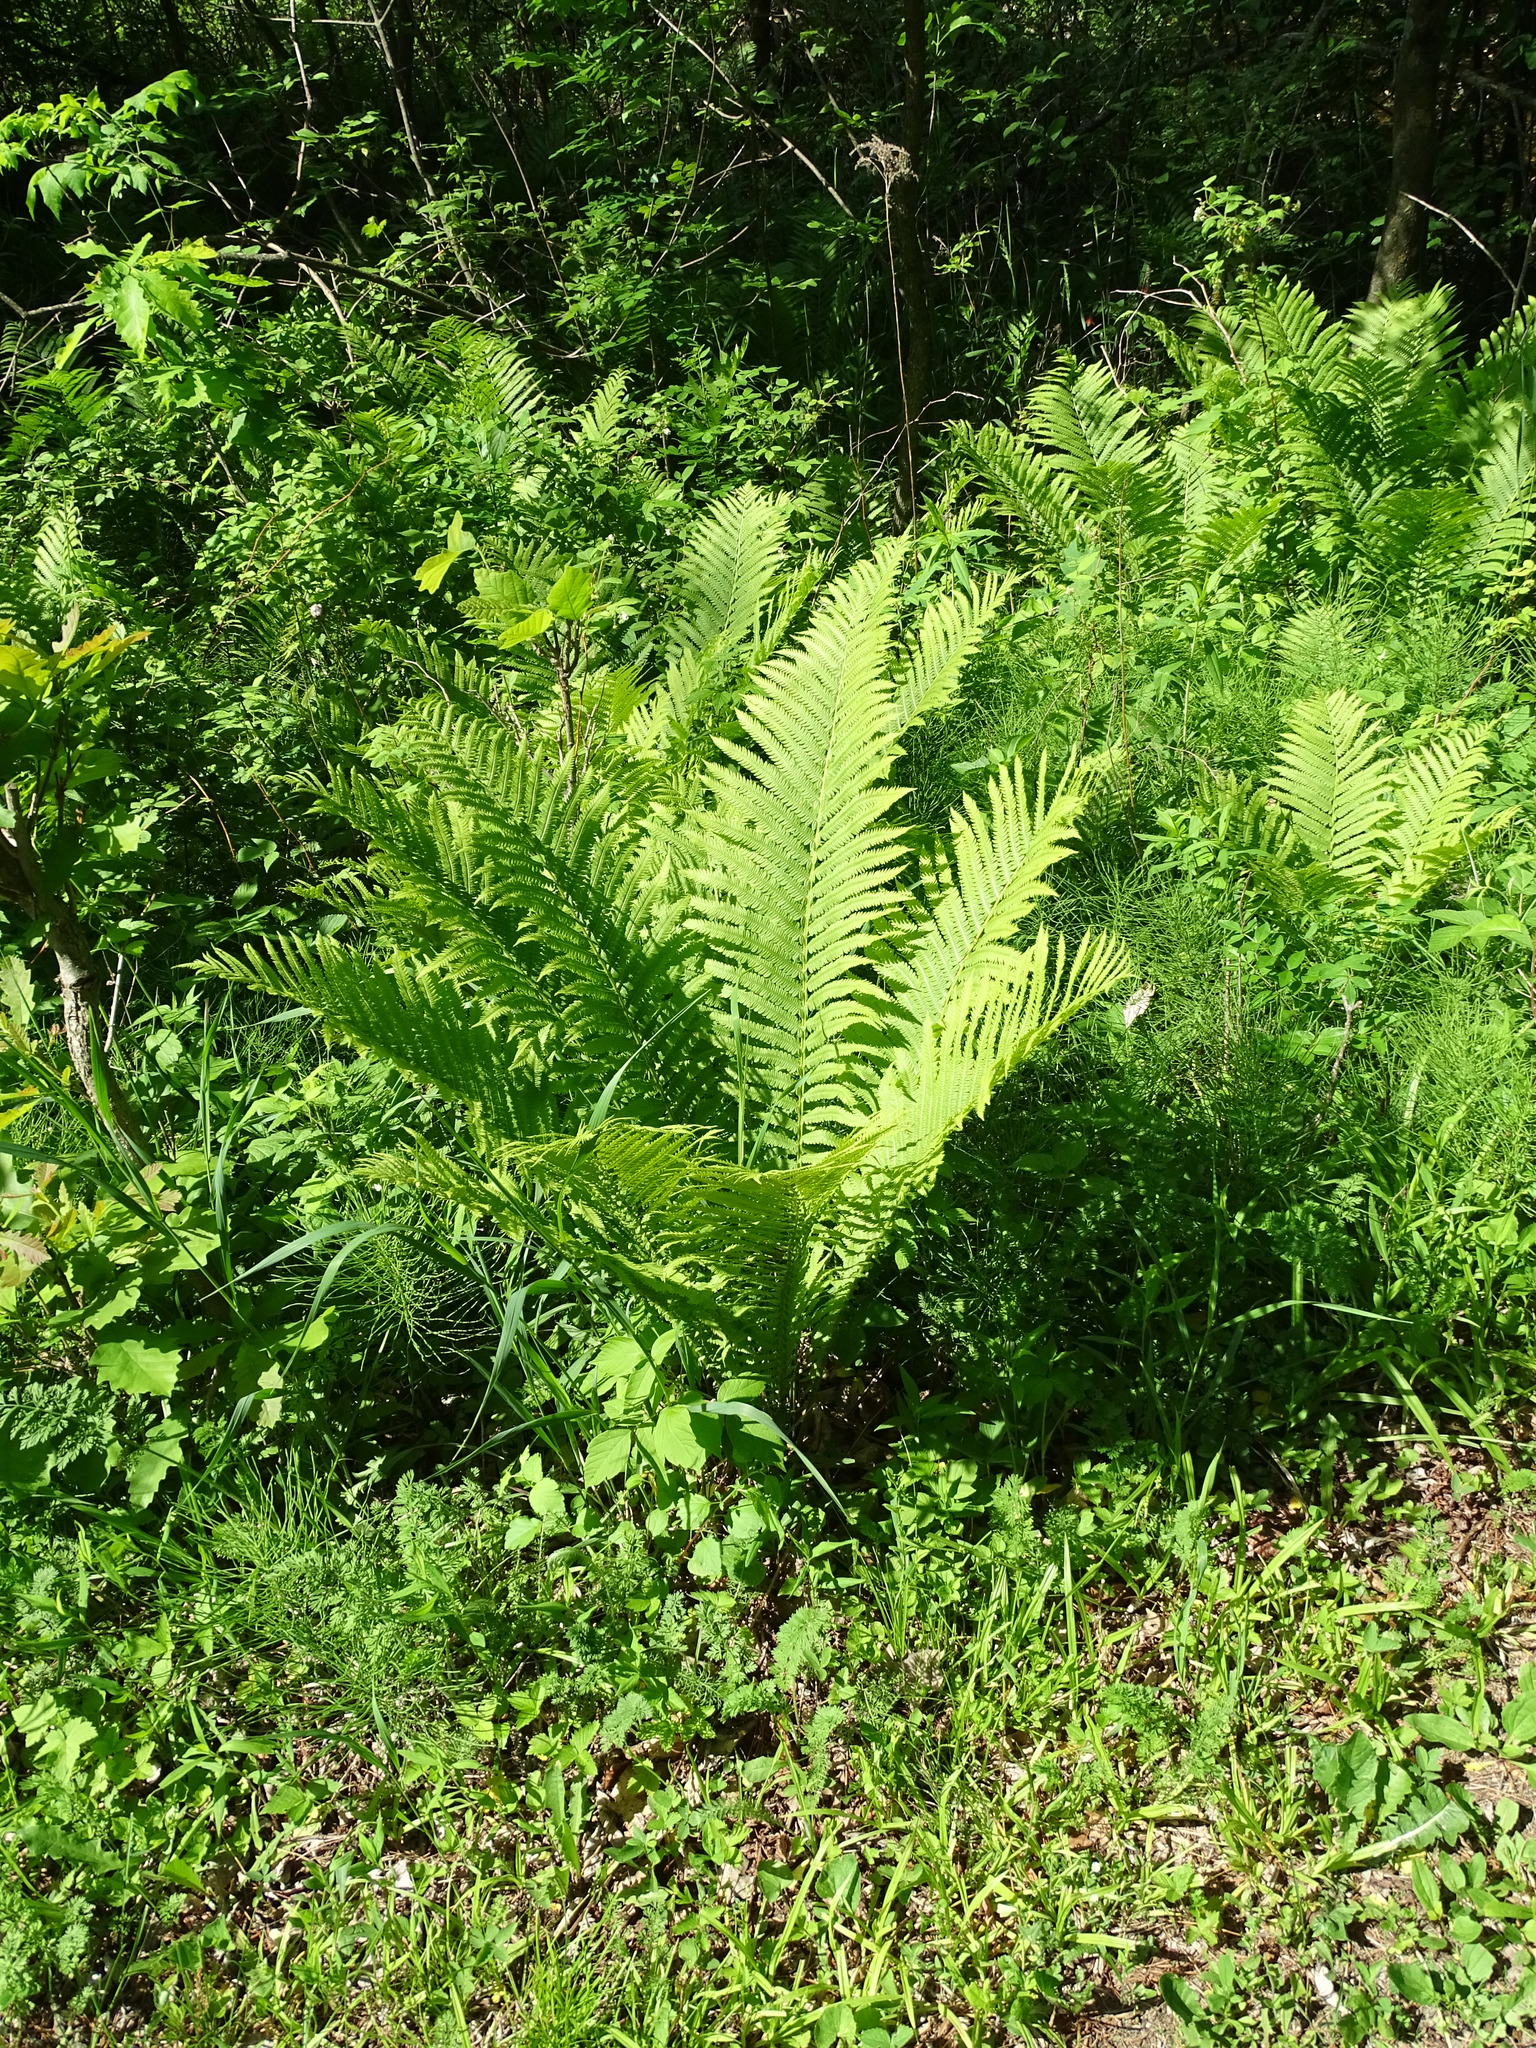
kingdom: Plantae
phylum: Tracheophyta
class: Polypodiopsida
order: Polypodiales
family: Onocleaceae
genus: Matteuccia
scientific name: Matteuccia struthiopteris
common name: Ostrich fern
